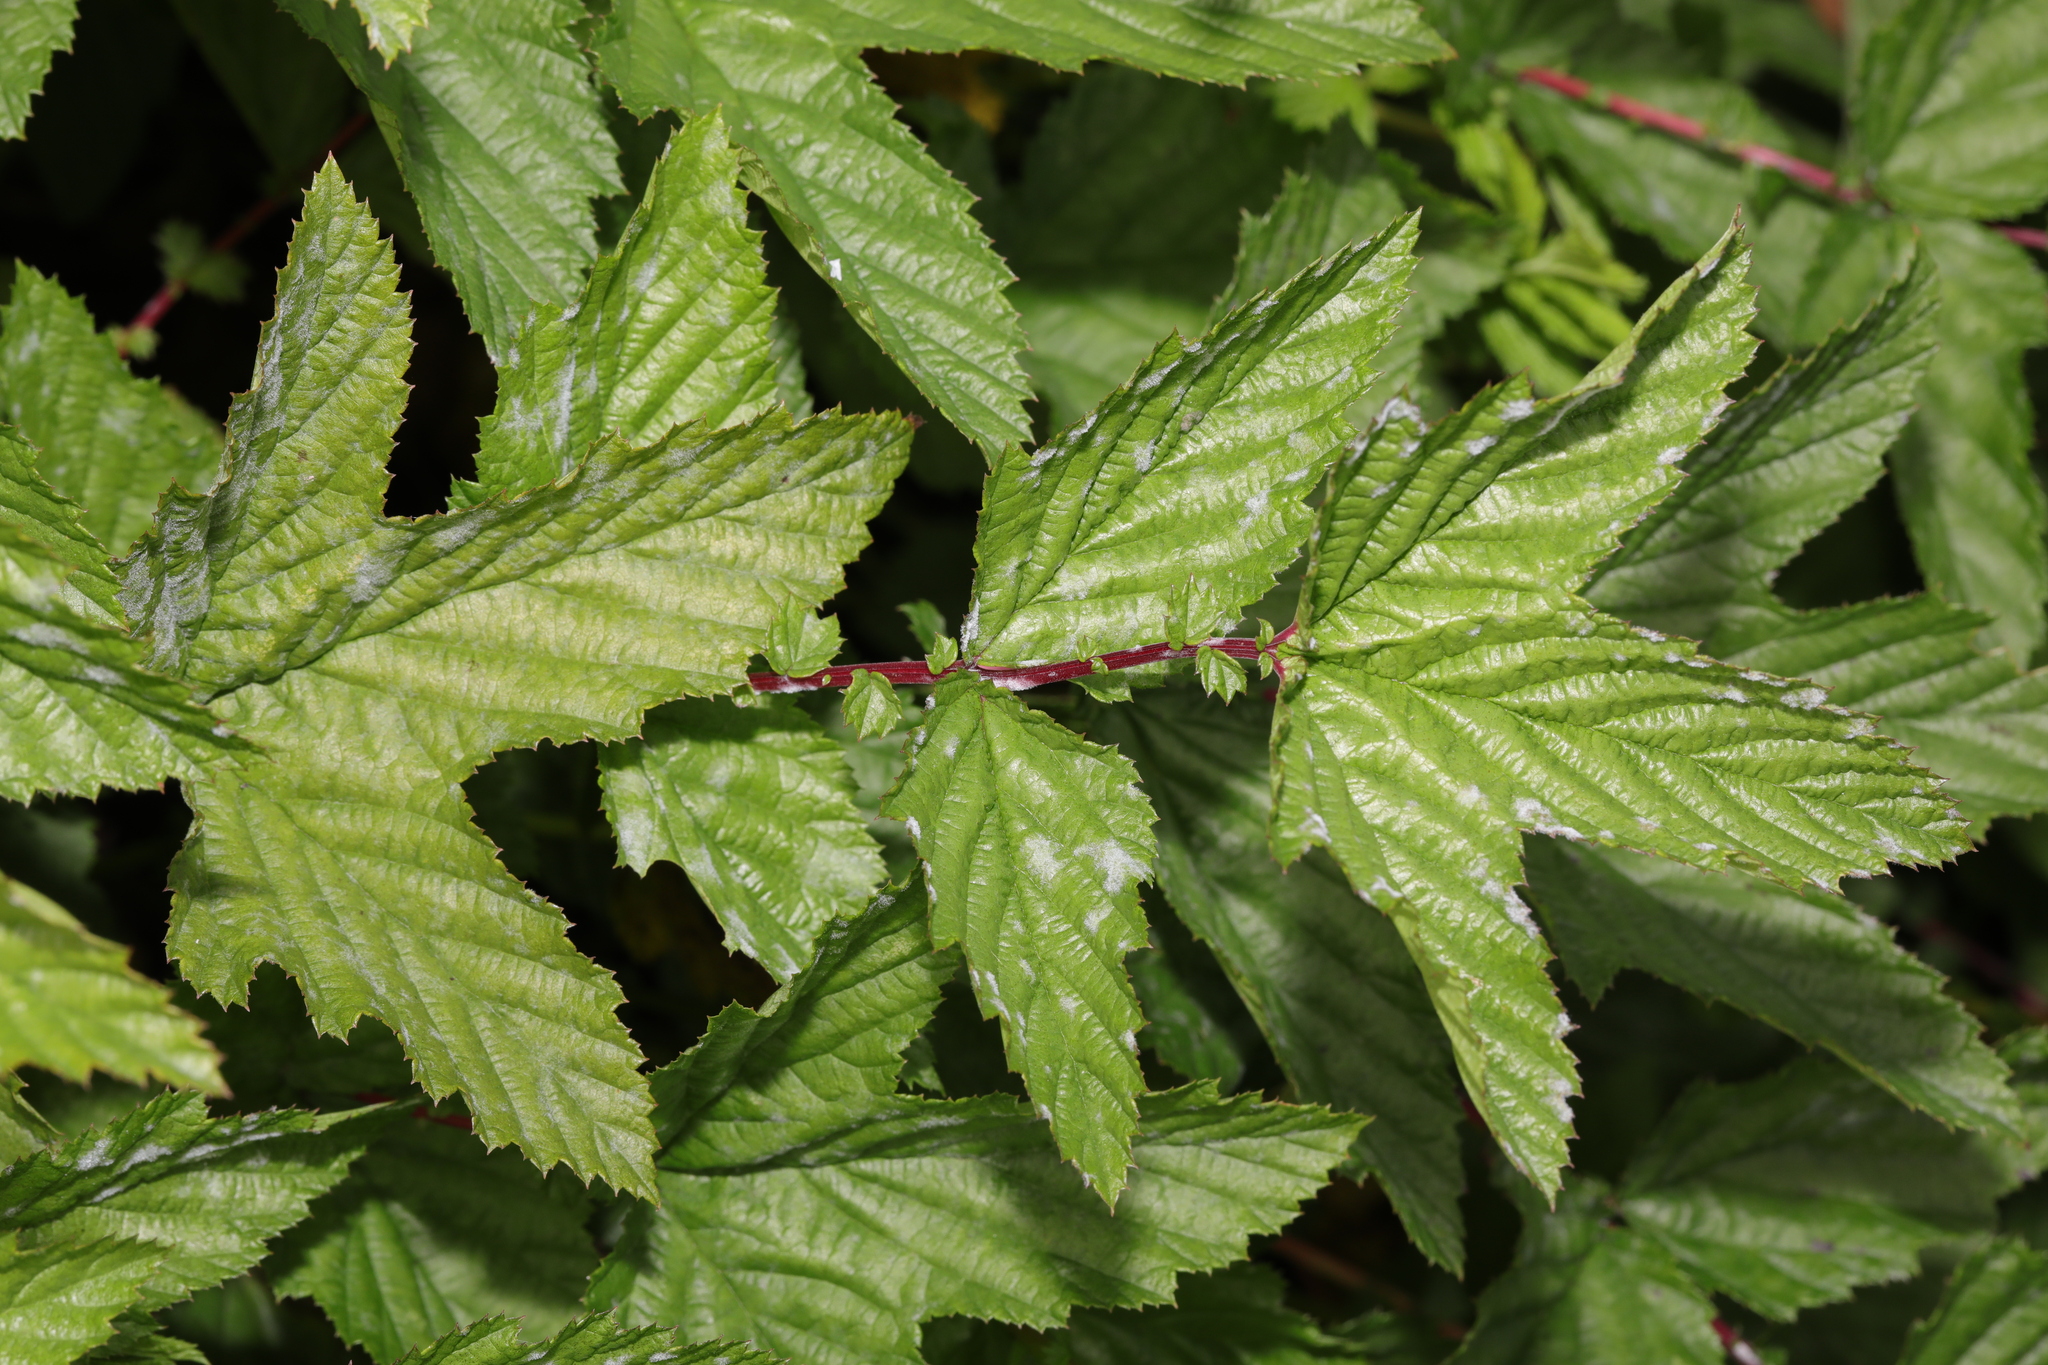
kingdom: Plantae
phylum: Tracheophyta
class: Magnoliopsida
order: Rosales
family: Rosaceae
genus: Filipendula
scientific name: Filipendula ulmaria
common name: Meadowsweet
